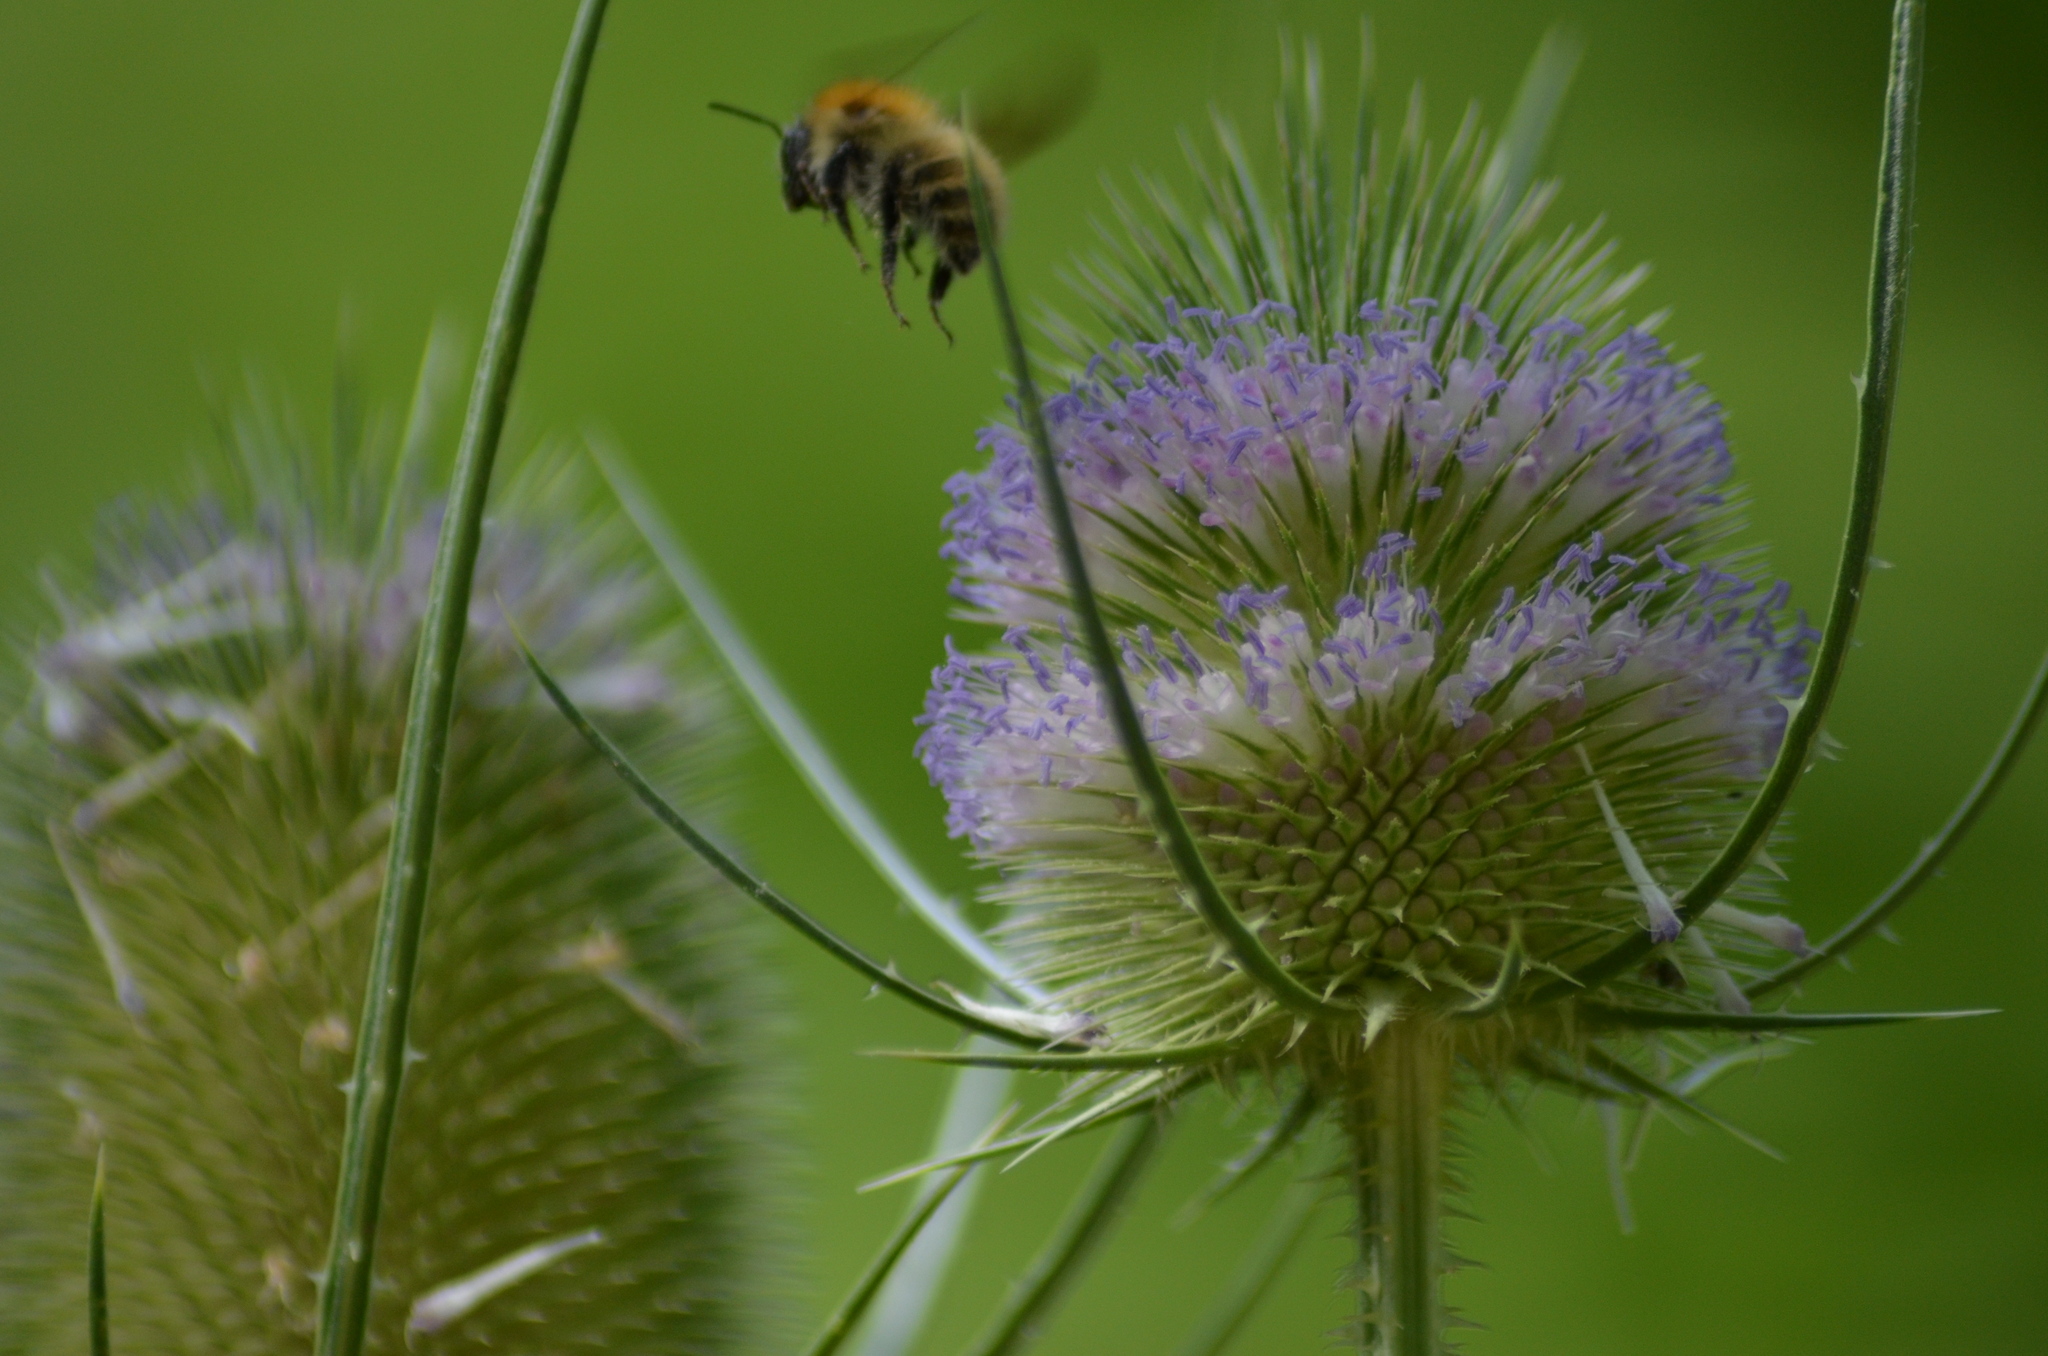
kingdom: Plantae
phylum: Tracheophyta
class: Magnoliopsida
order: Dipsacales
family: Caprifoliaceae
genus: Dipsacus
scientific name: Dipsacus fullonum
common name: Teasel
